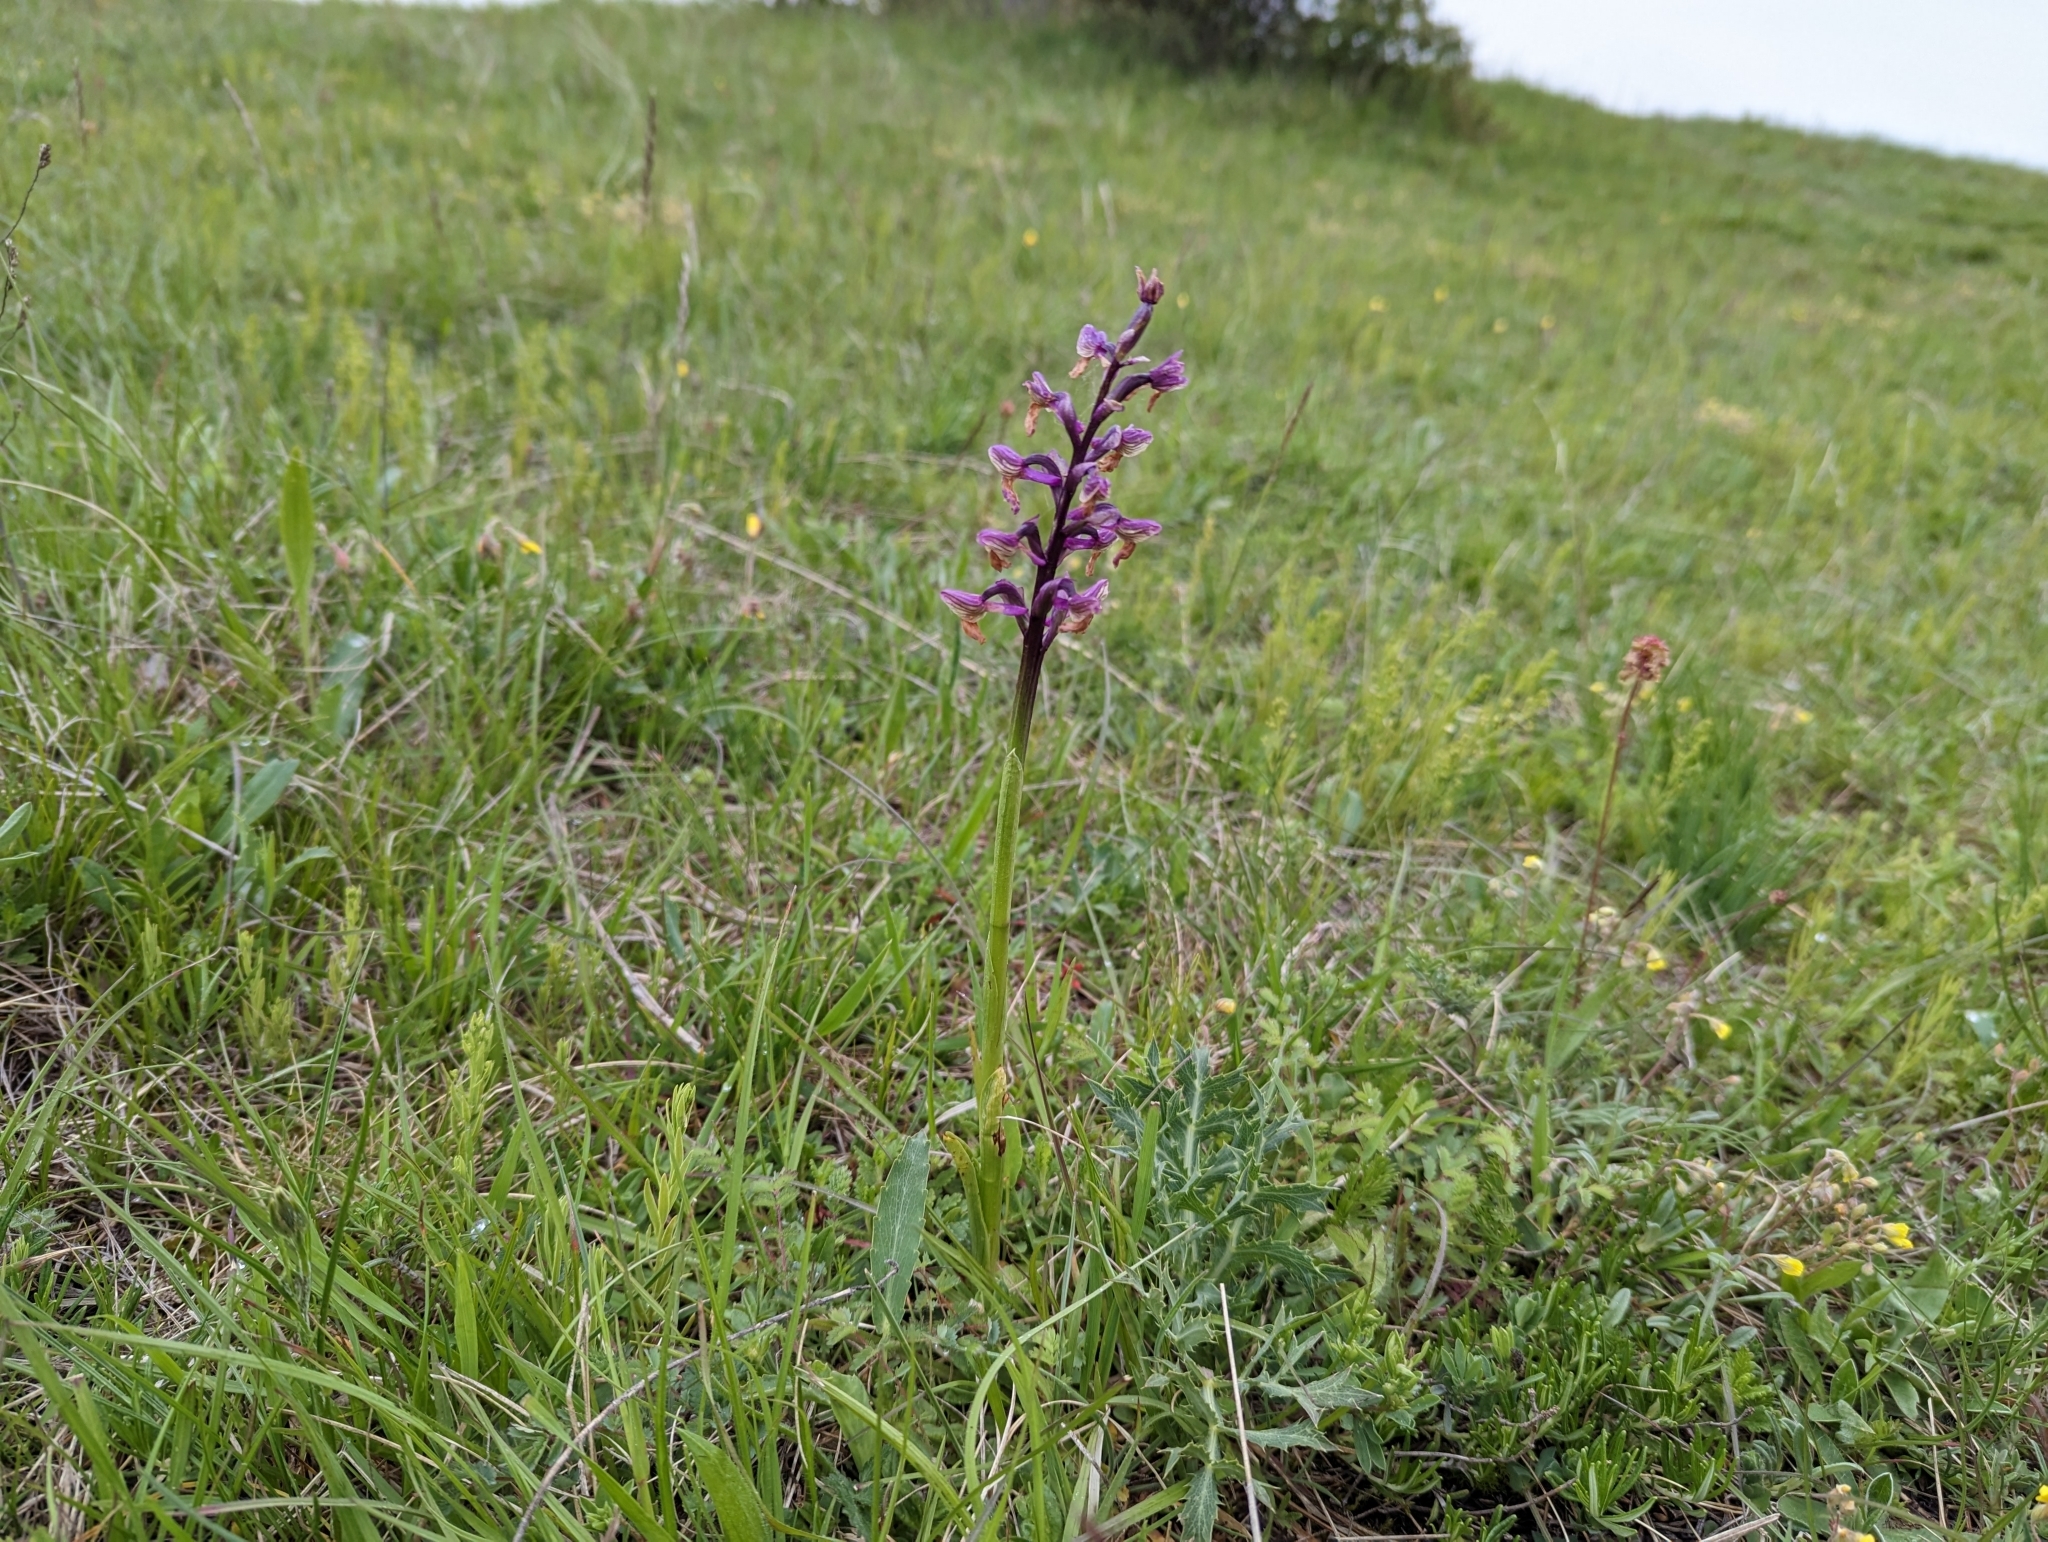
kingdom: Plantae
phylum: Tracheophyta
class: Liliopsida
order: Asparagales
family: Orchidaceae
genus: Anacamptis
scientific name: Anacamptis morio
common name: Green-winged orchid
